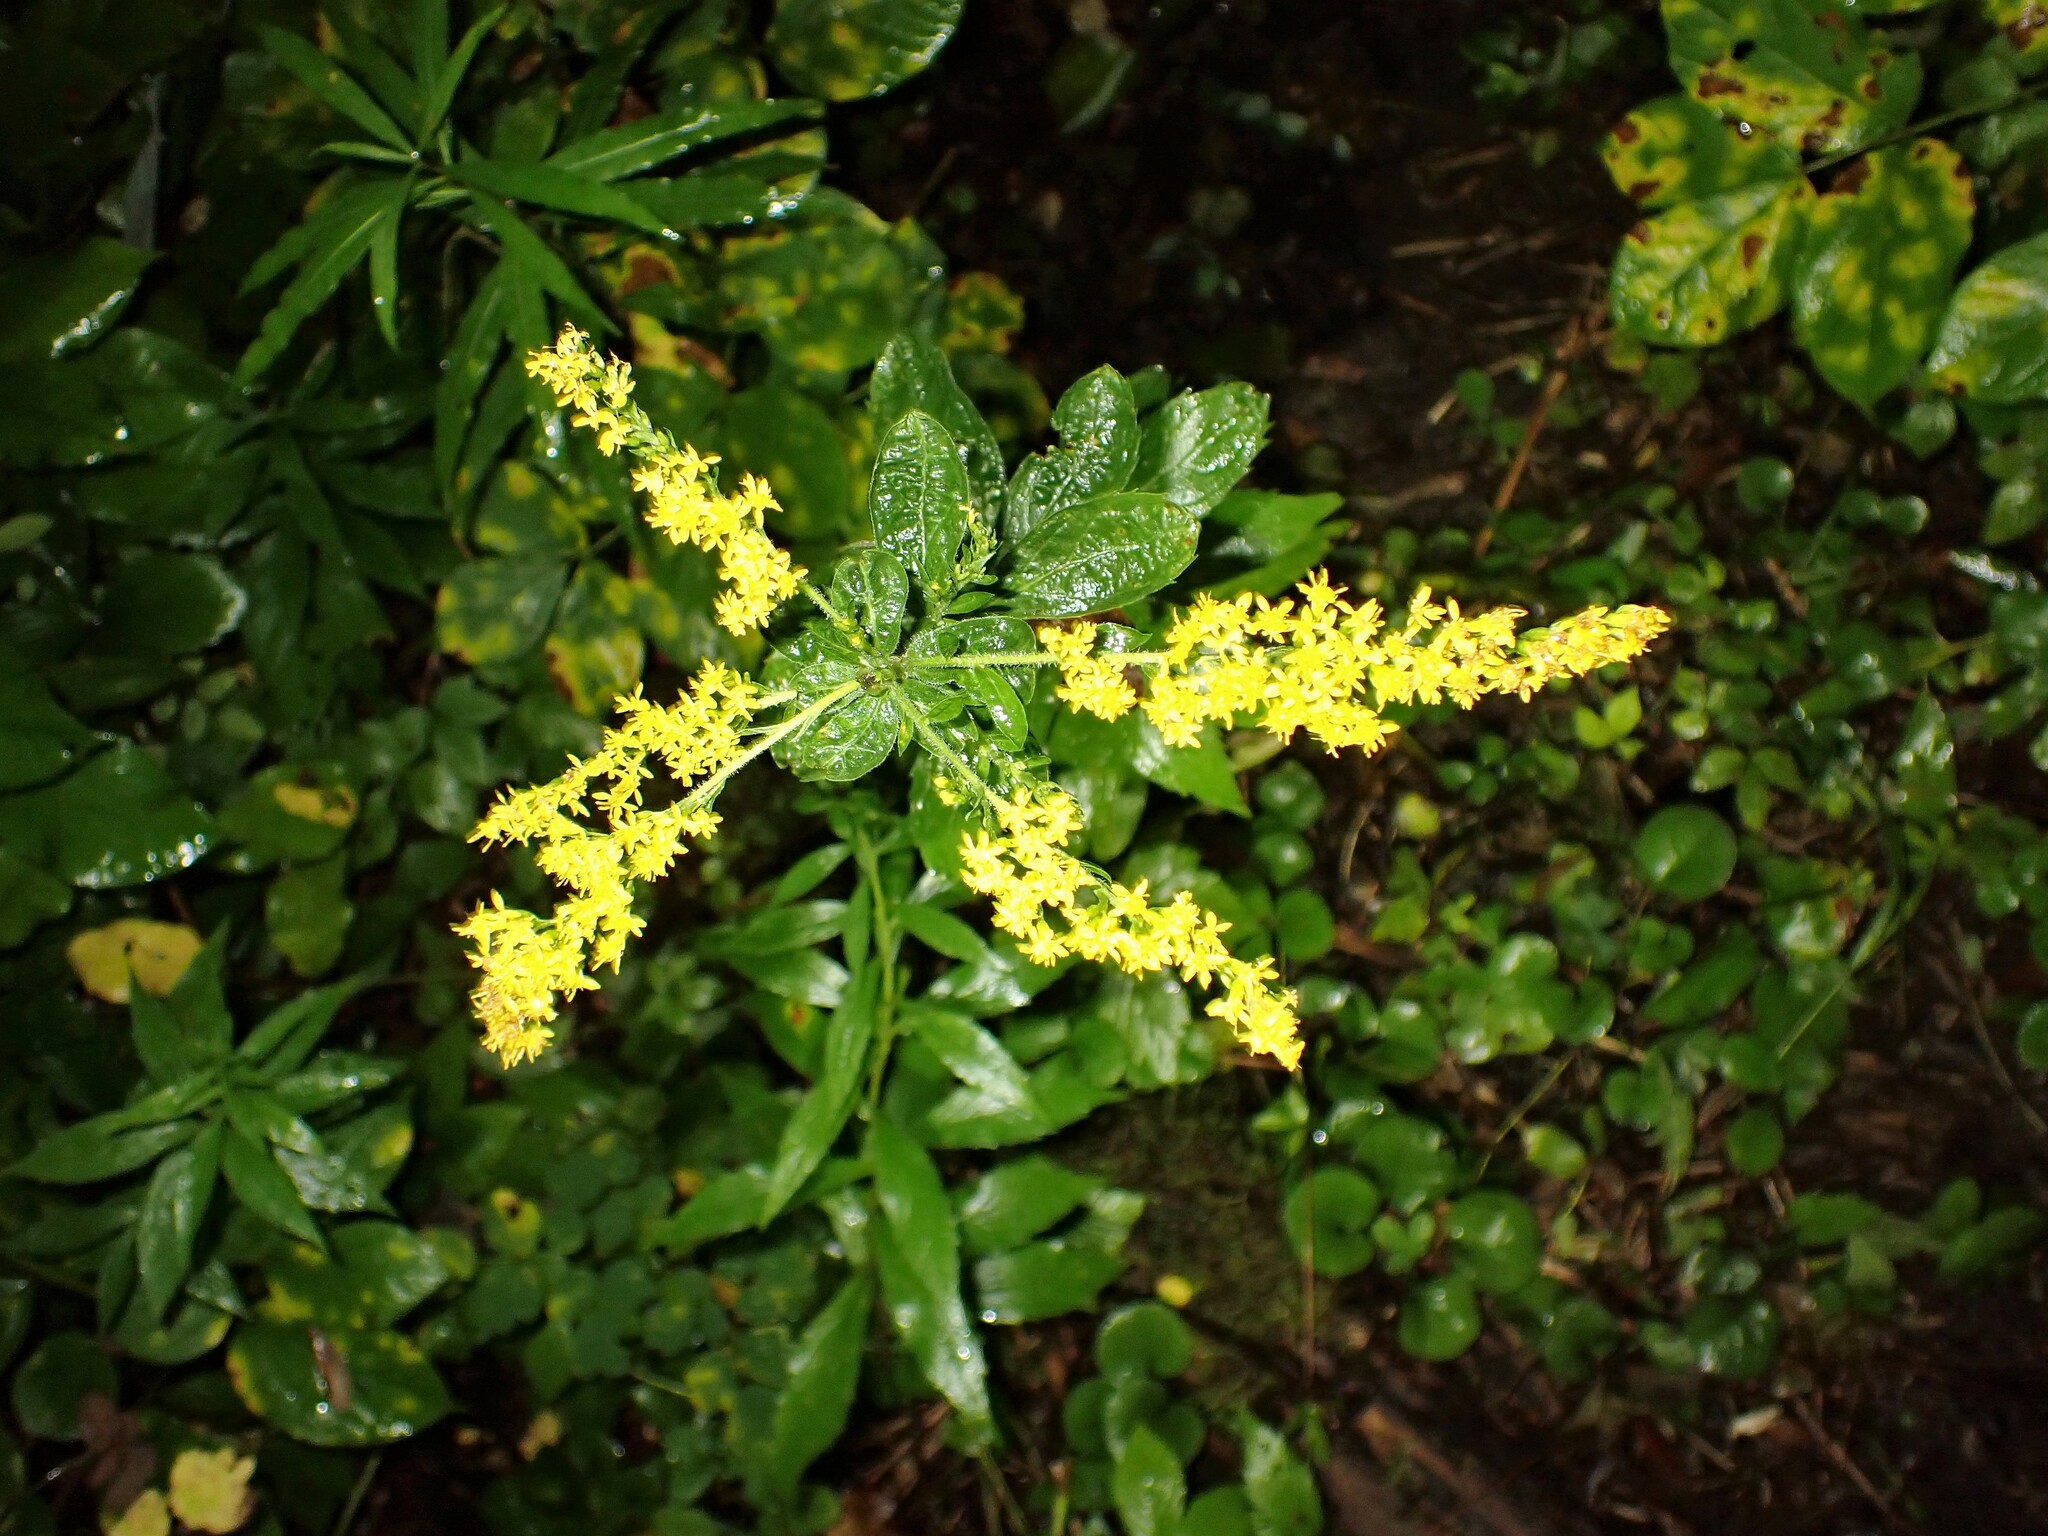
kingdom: Plantae
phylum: Tracheophyta
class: Magnoliopsida
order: Asterales
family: Asteraceae
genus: Solidago
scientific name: Solidago rugosa
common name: Rough-stemmed goldenrod
